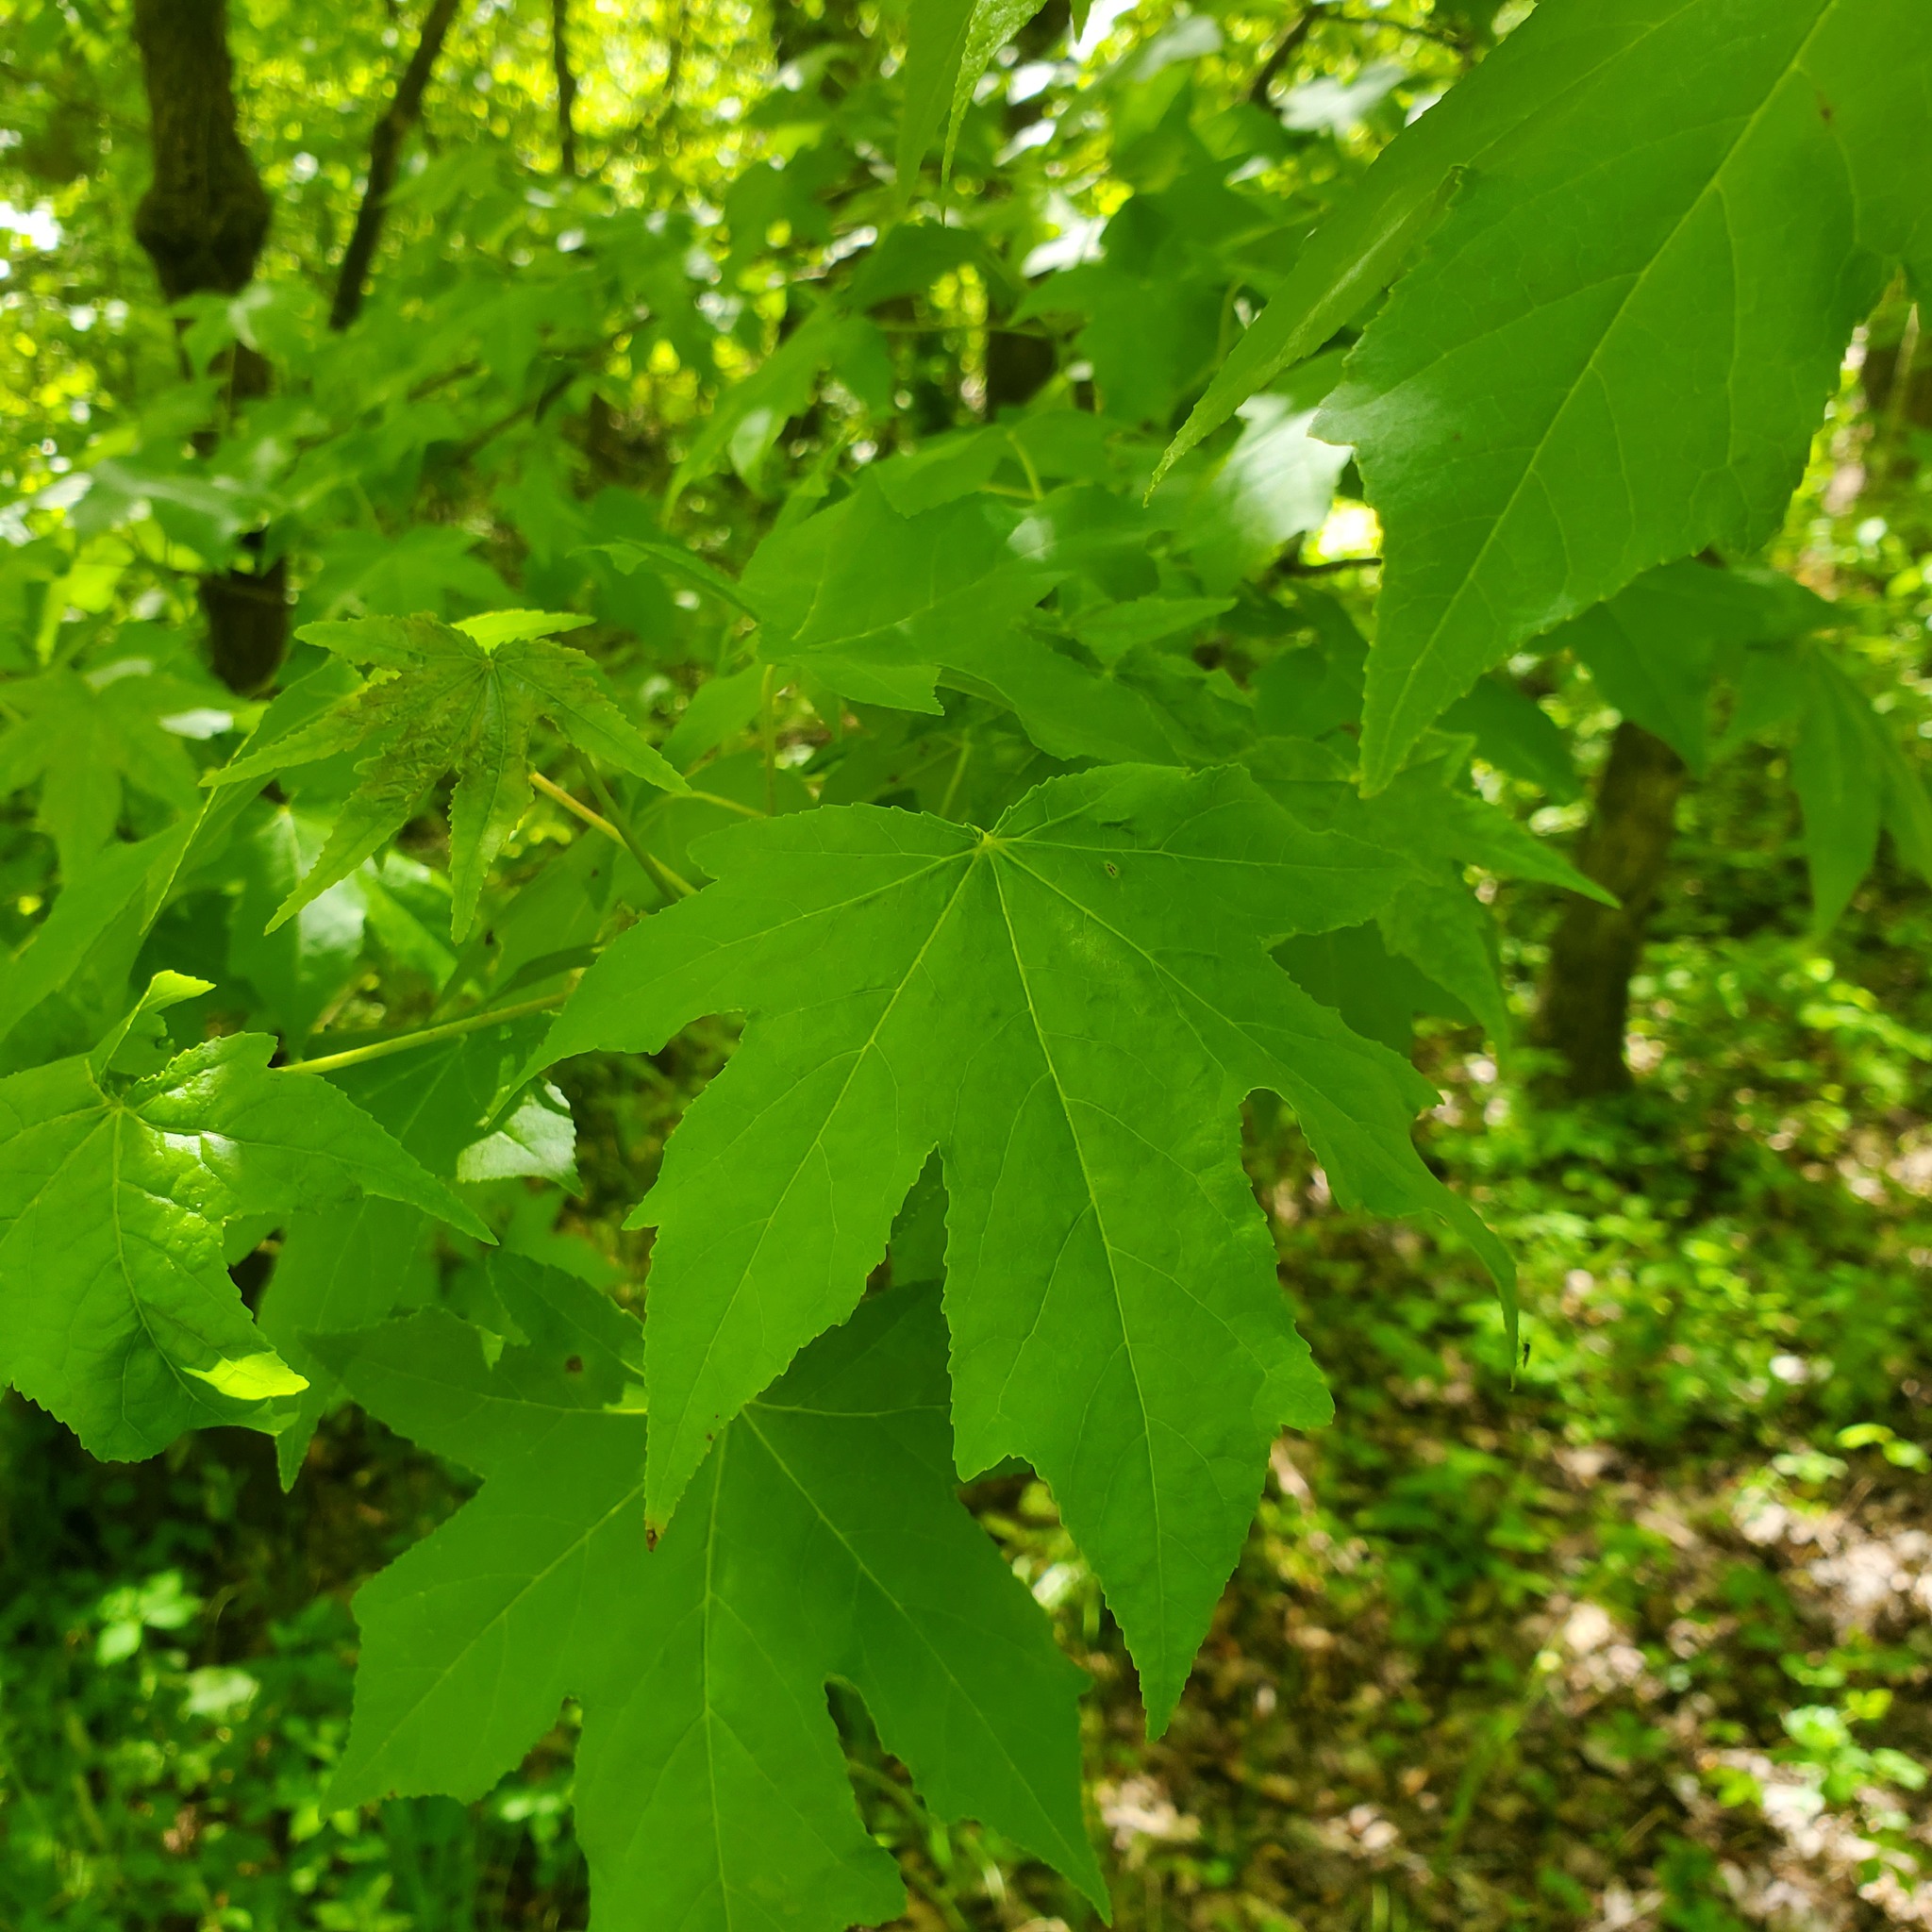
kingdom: Plantae
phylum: Tracheophyta
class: Magnoliopsida
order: Saxifragales
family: Altingiaceae
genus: Liquidambar
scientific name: Liquidambar styraciflua
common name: Sweet gum
